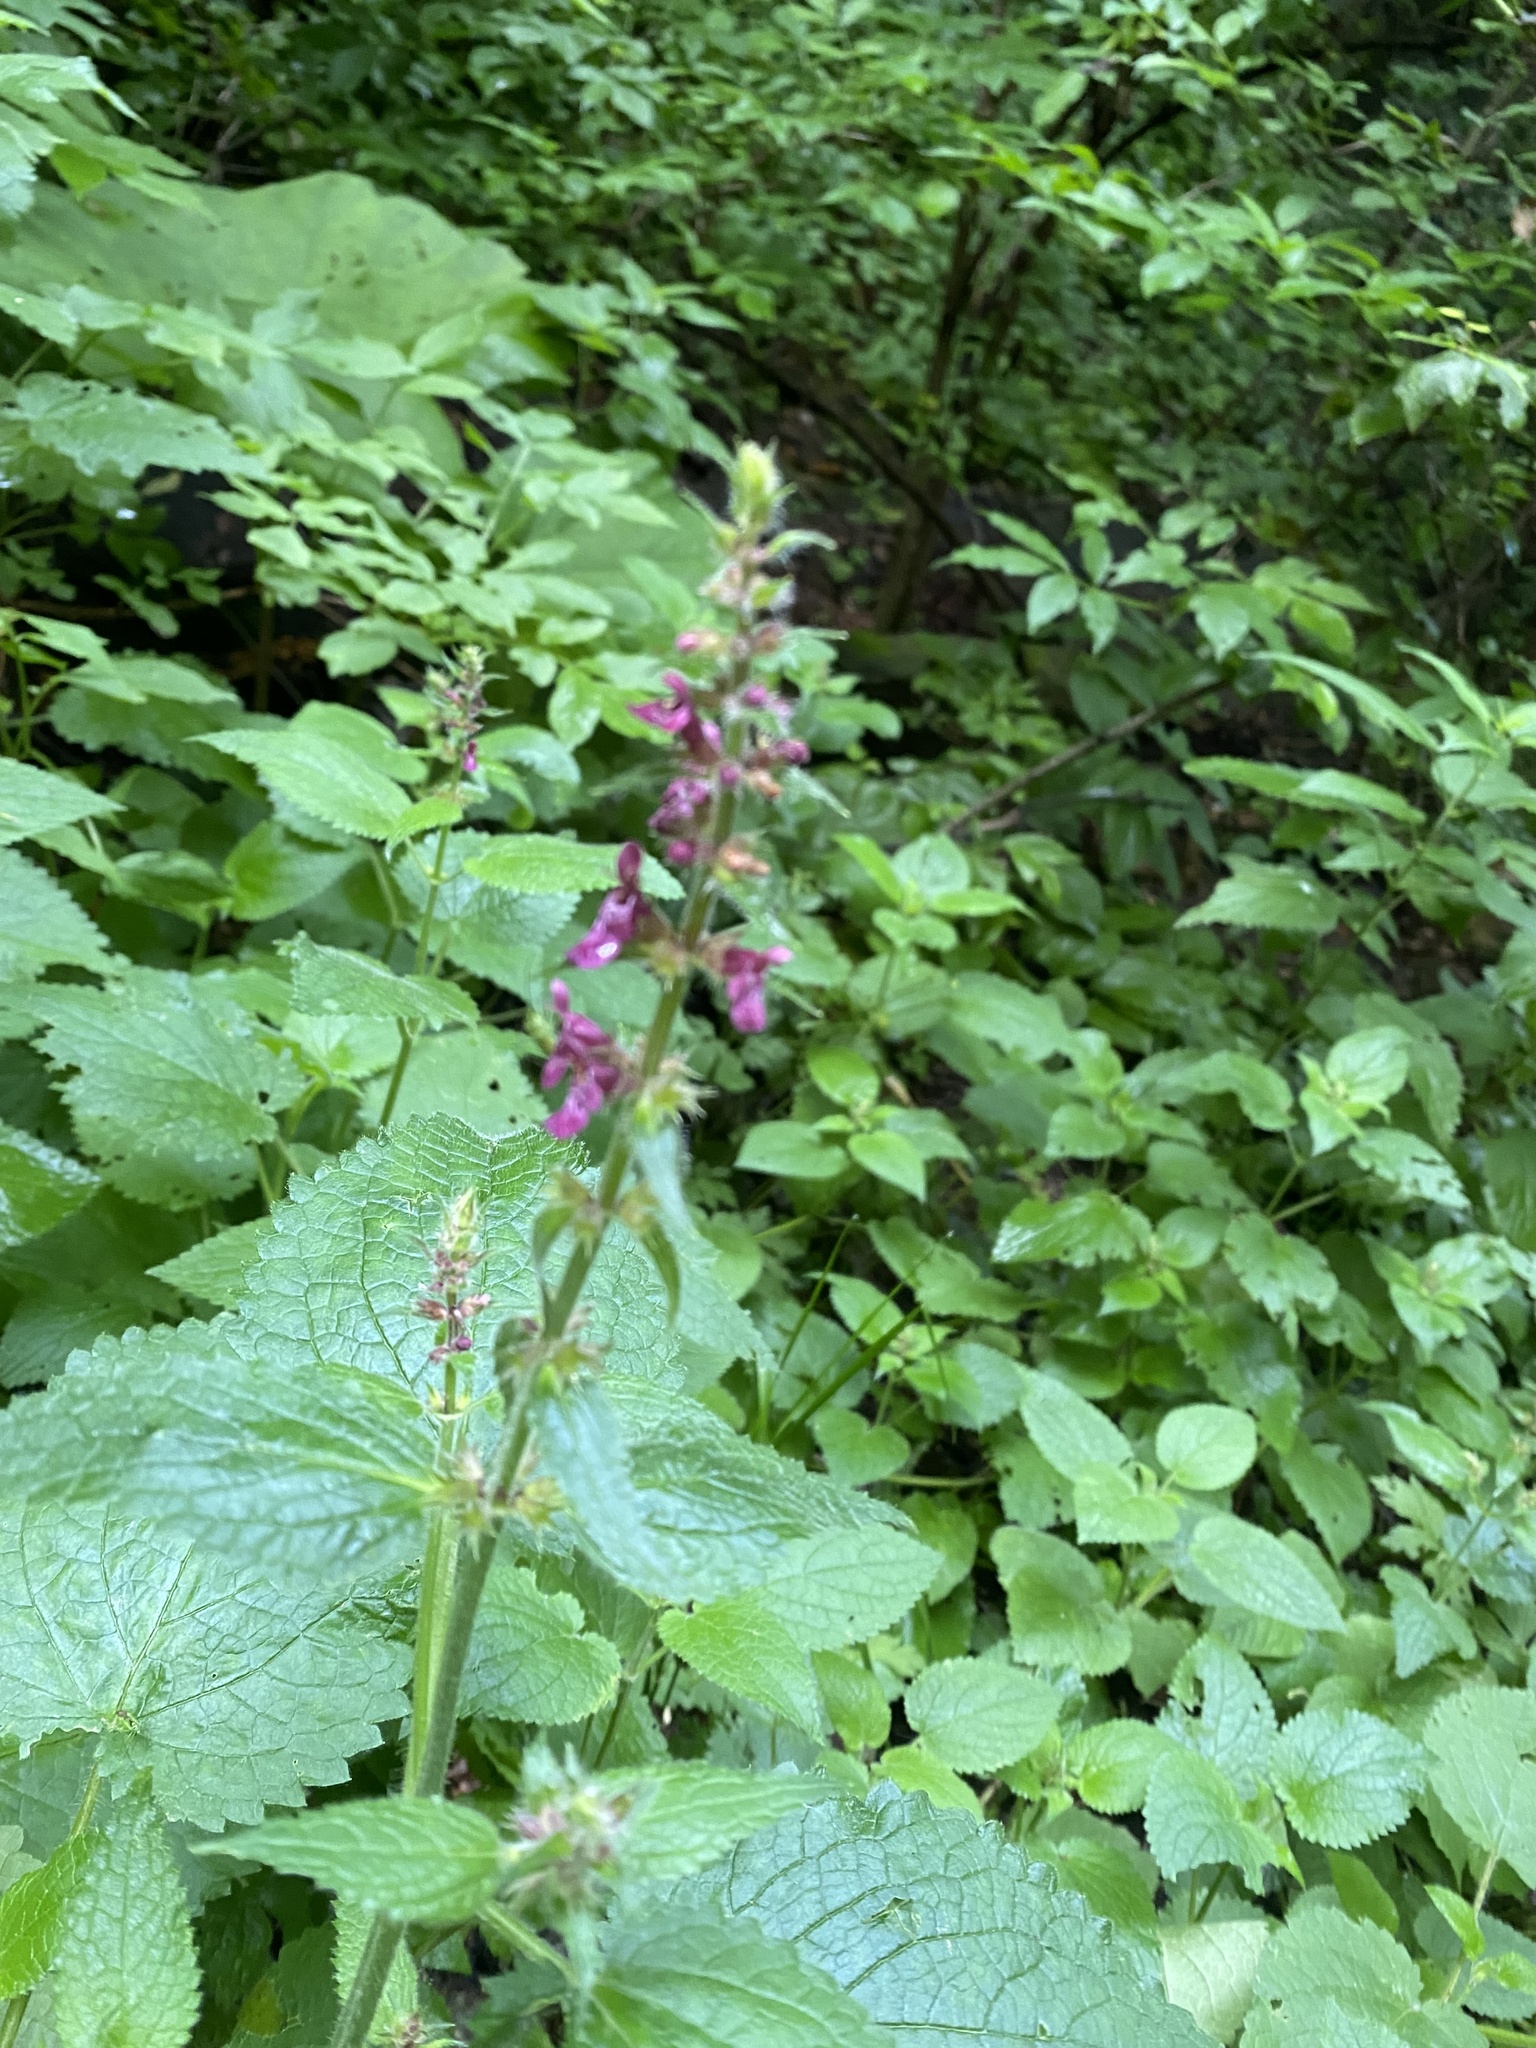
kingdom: Plantae
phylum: Tracheophyta
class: Magnoliopsida
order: Lamiales
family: Lamiaceae
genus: Stachys
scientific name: Stachys sylvatica
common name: Hedge woundwort
